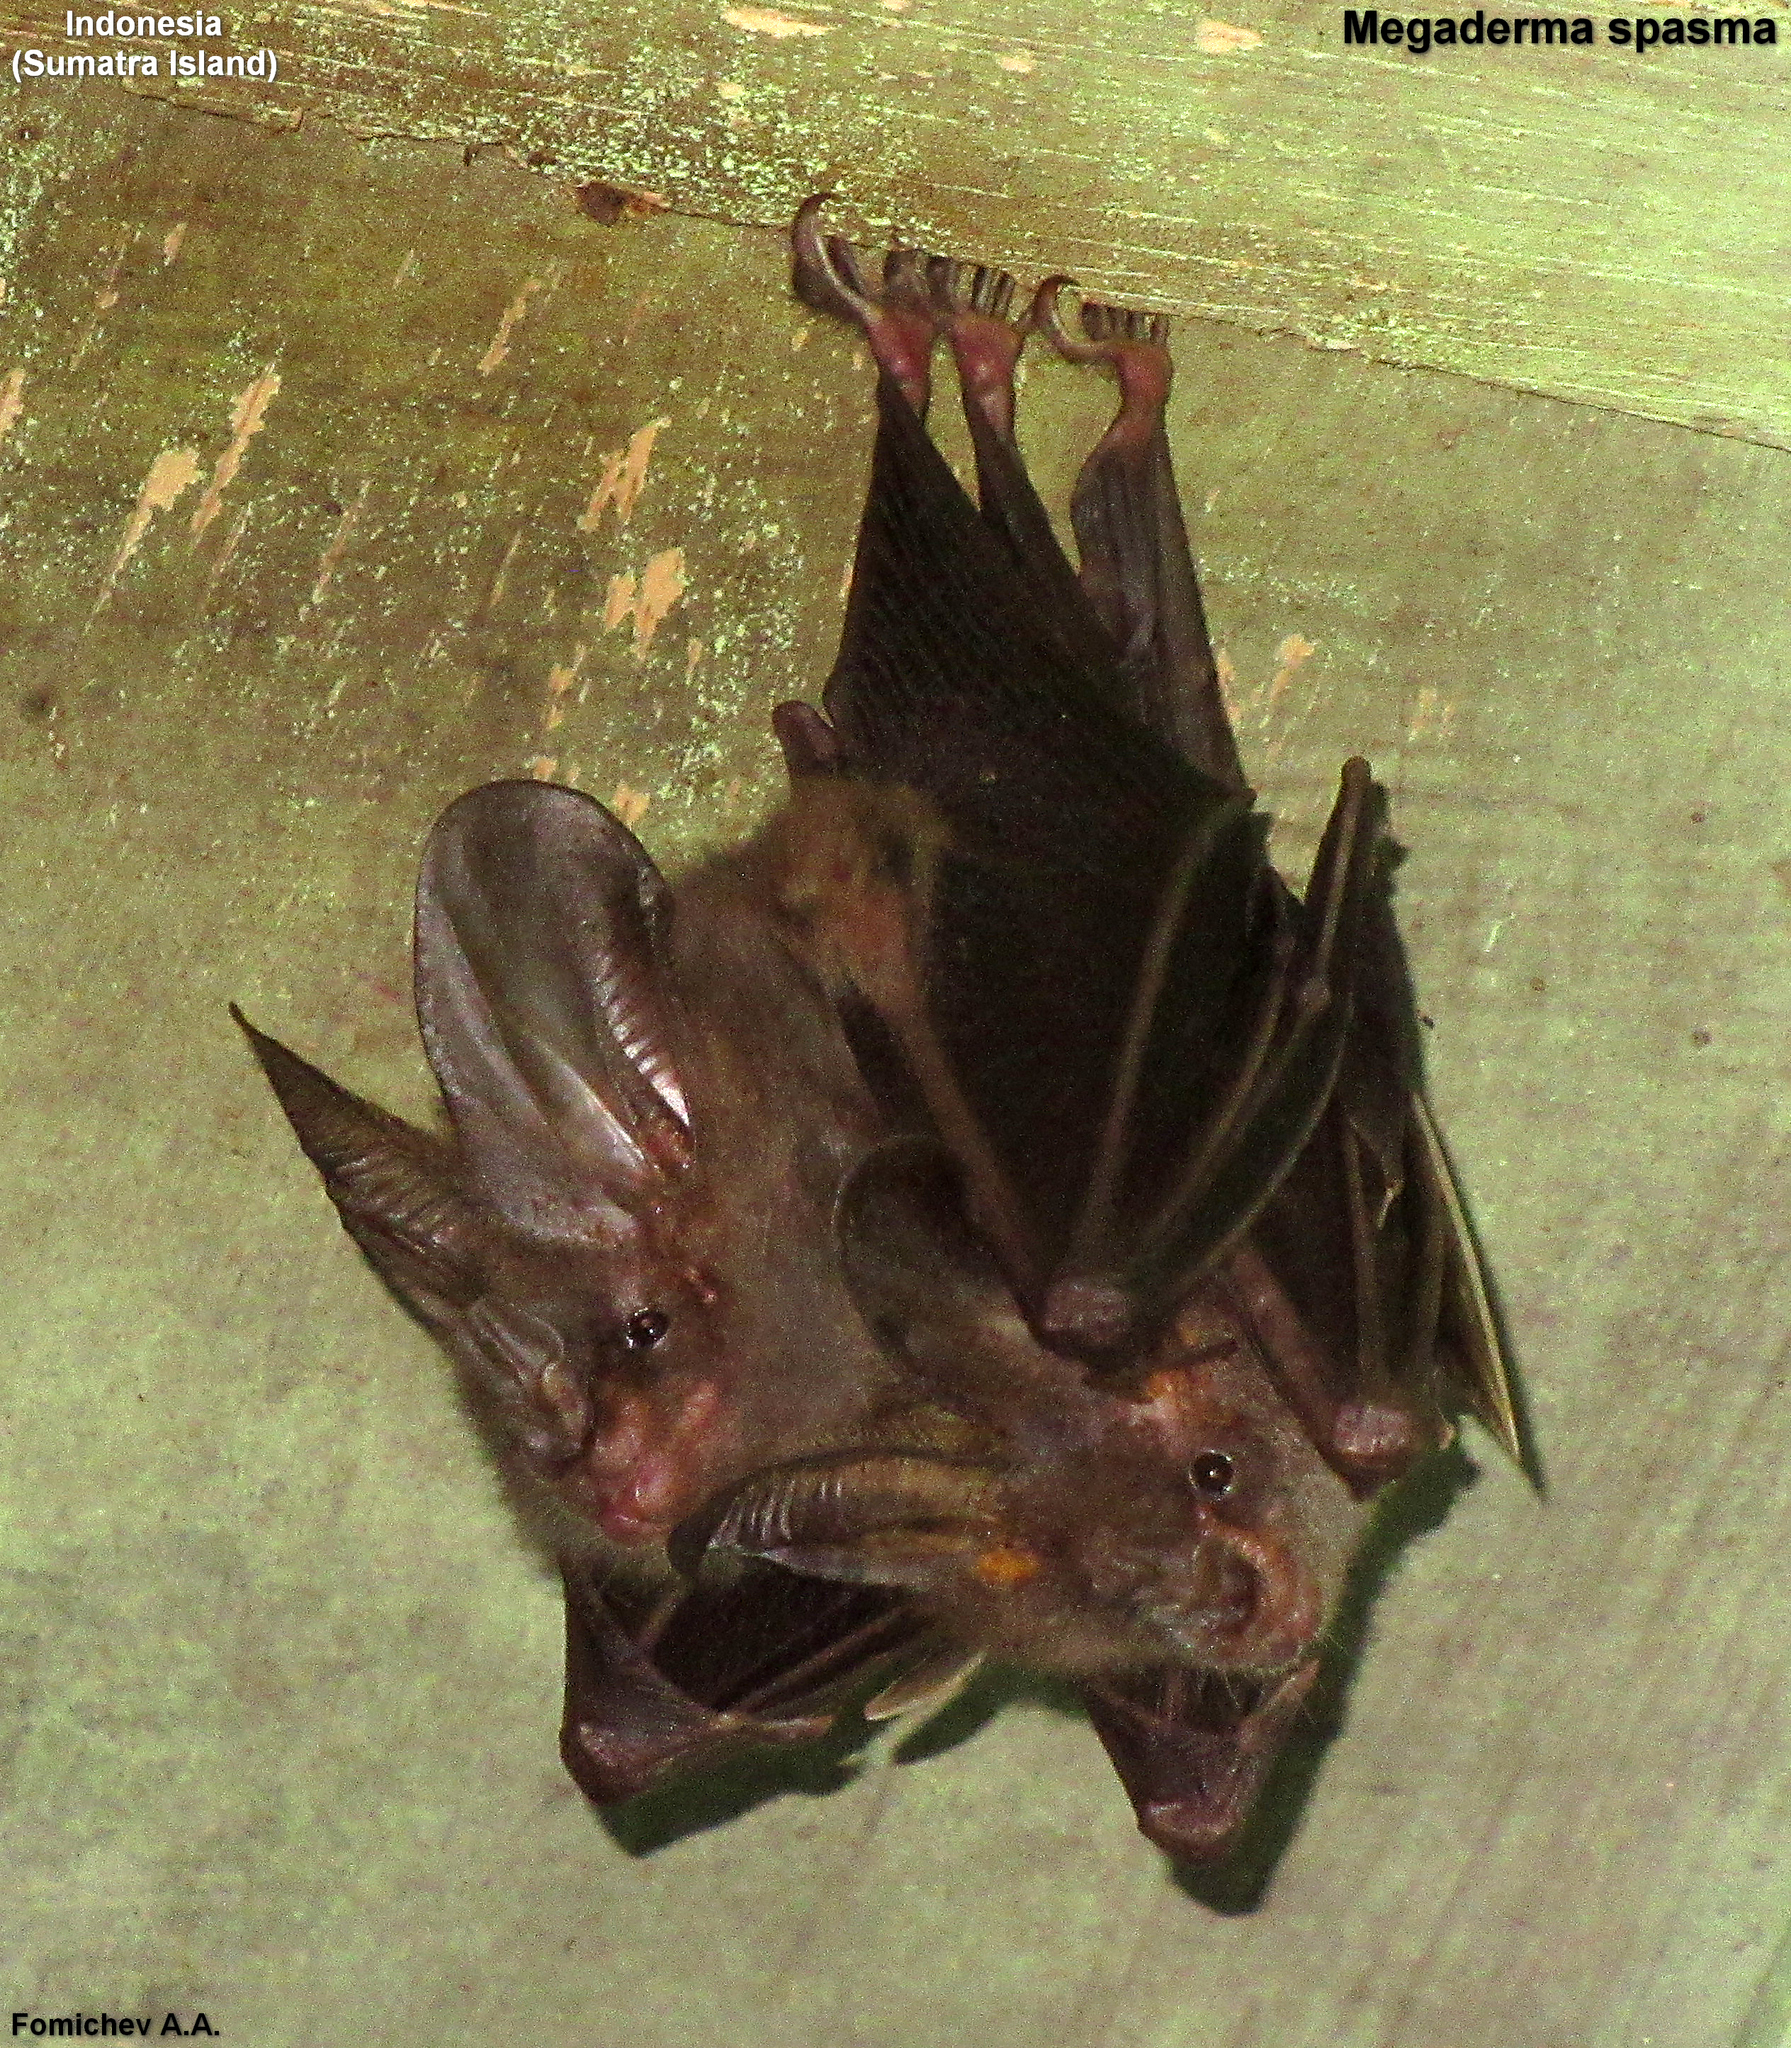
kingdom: Animalia
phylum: Chordata
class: Mammalia
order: Chiroptera
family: Megadermatidae
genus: Megaderma
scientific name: Megaderma spasma
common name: Lesser false vampire bat
